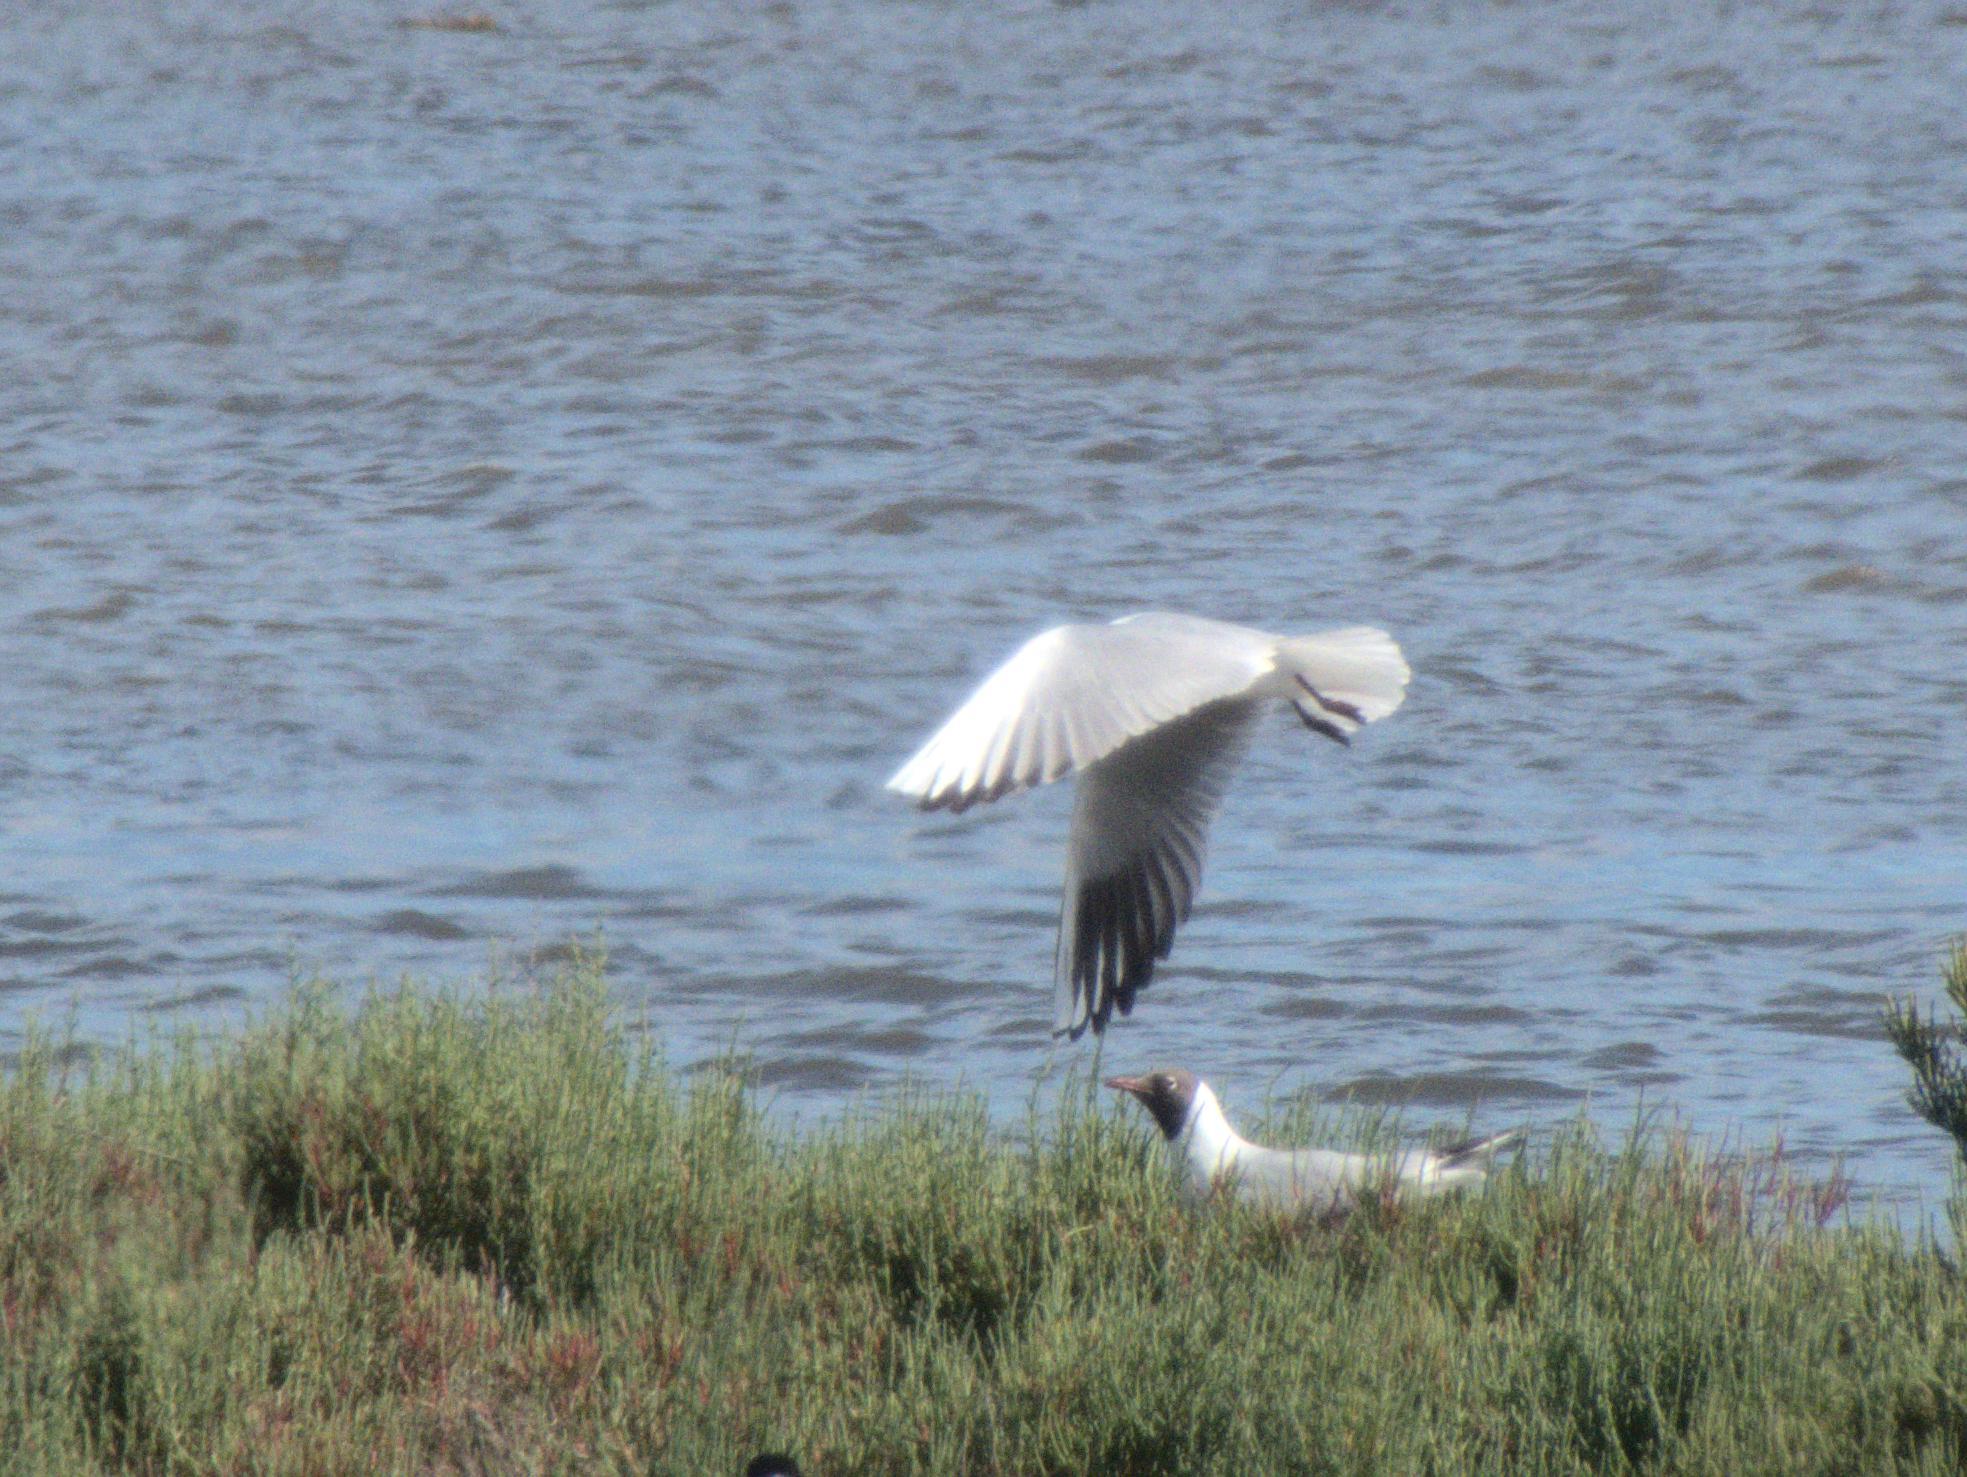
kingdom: Animalia
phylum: Chordata
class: Aves
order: Charadriiformes
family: Laridae
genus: Chroicocephalus
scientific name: Chroicocephalus ridibundus
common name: Black-headed gull
